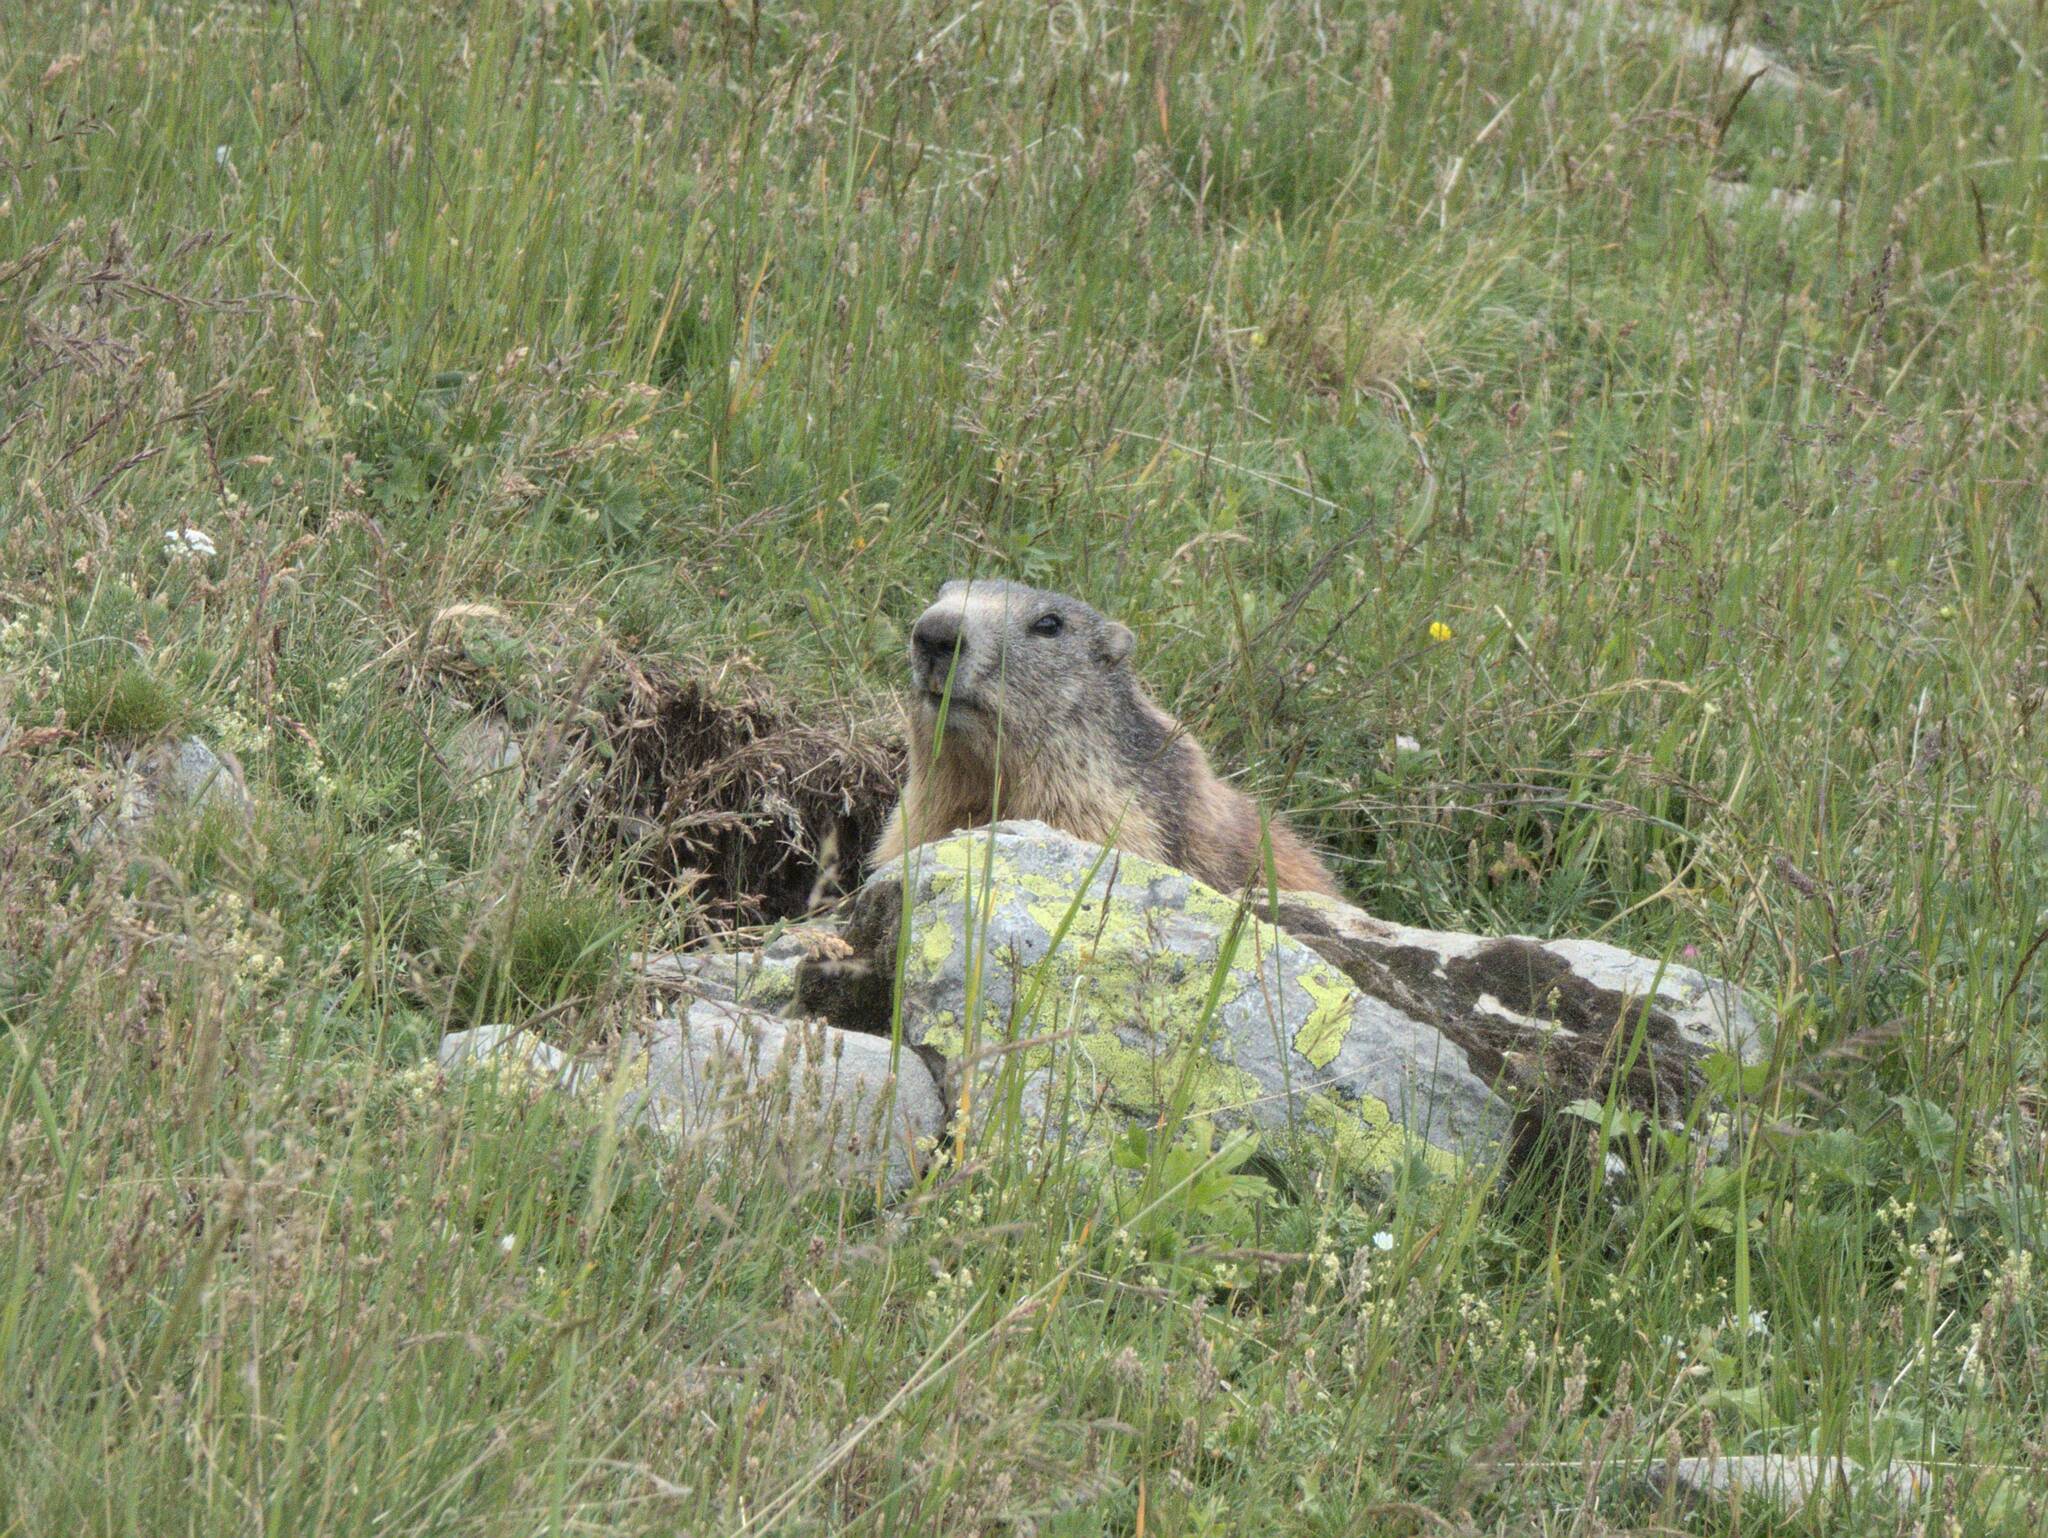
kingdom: Animalia
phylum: Chordata
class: Mammalia
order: Rodentia
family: Sciuridae
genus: Marmota
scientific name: Marmota marmota
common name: Alpine marmot
